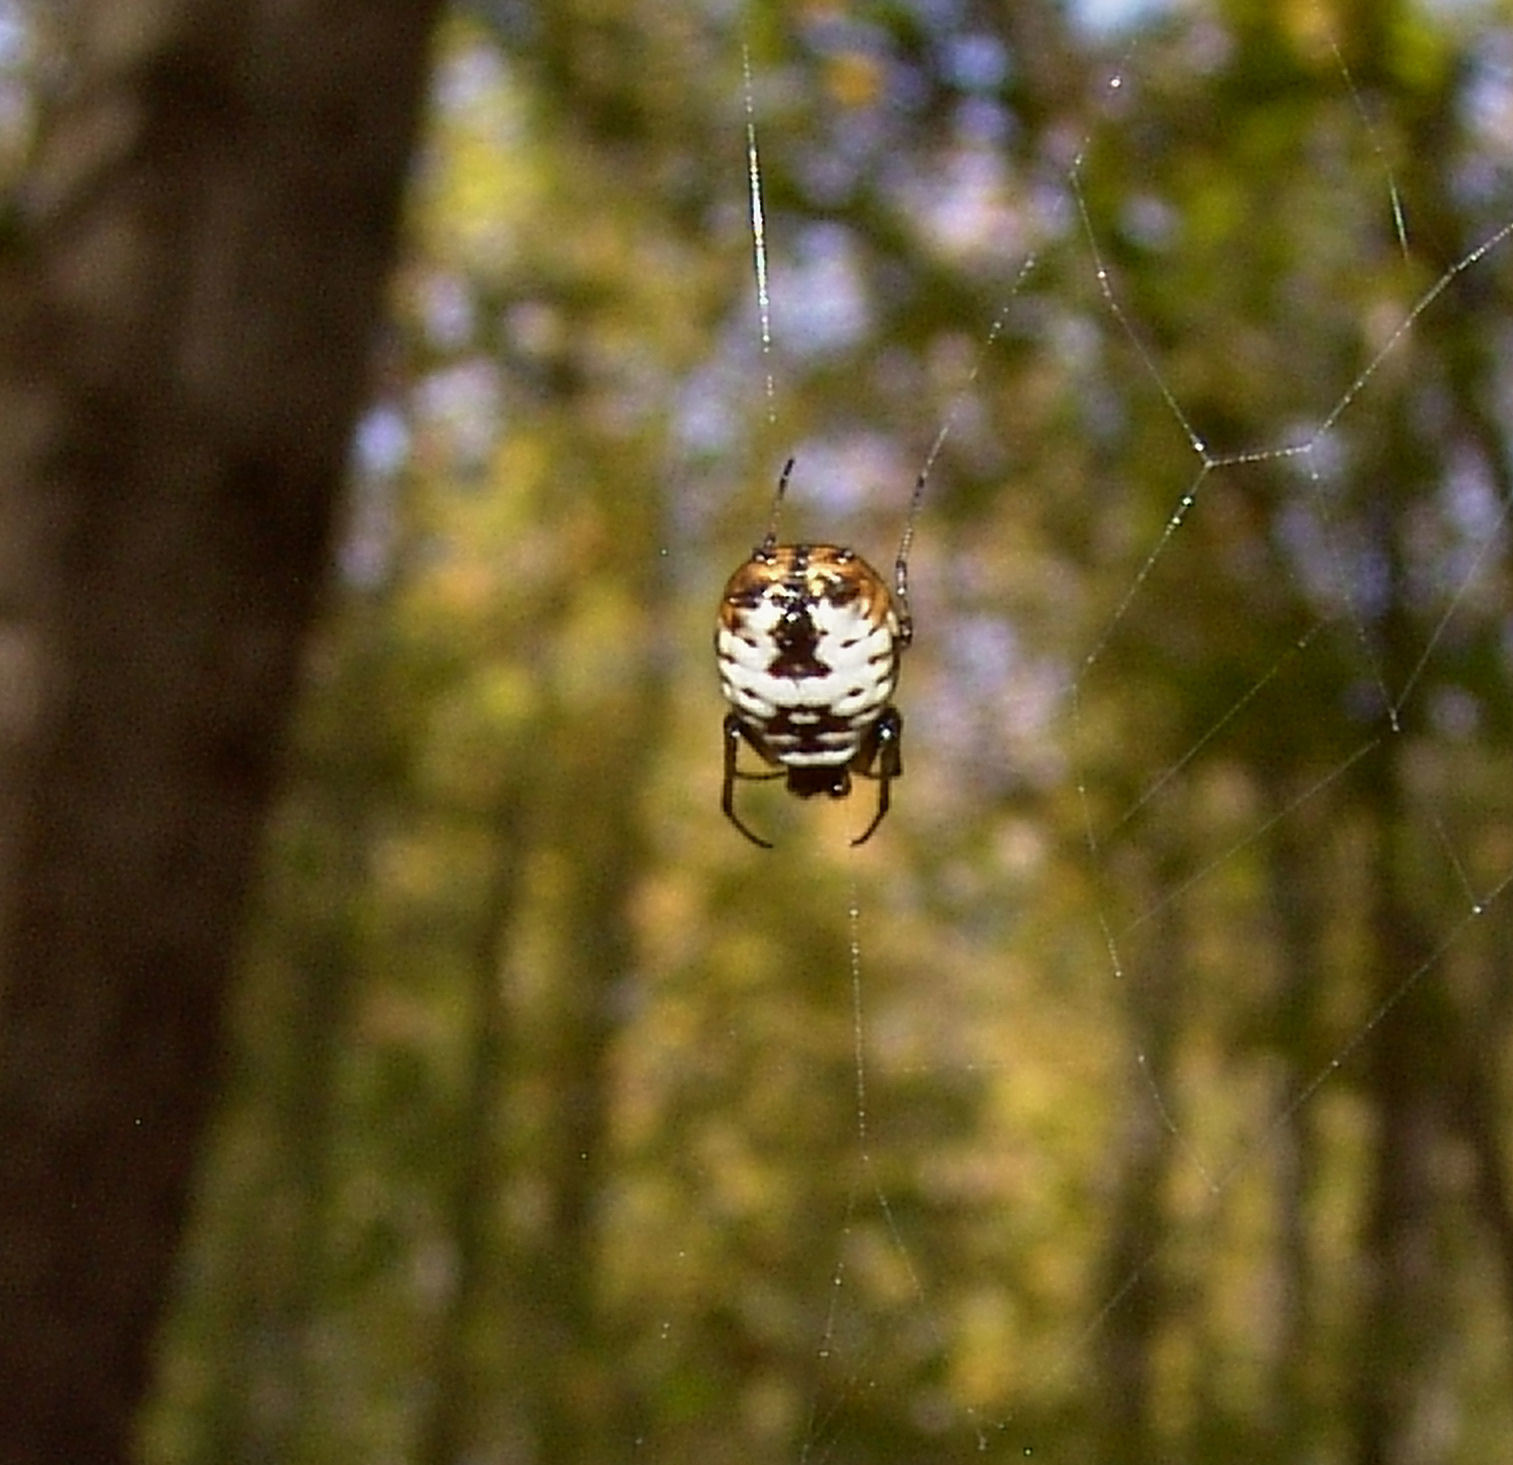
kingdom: Animalia
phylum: Arthropoda
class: Arachnida
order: Araneae
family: Araneidae
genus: Micrathena
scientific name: Micrathena mitrata
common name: Orb weavers
